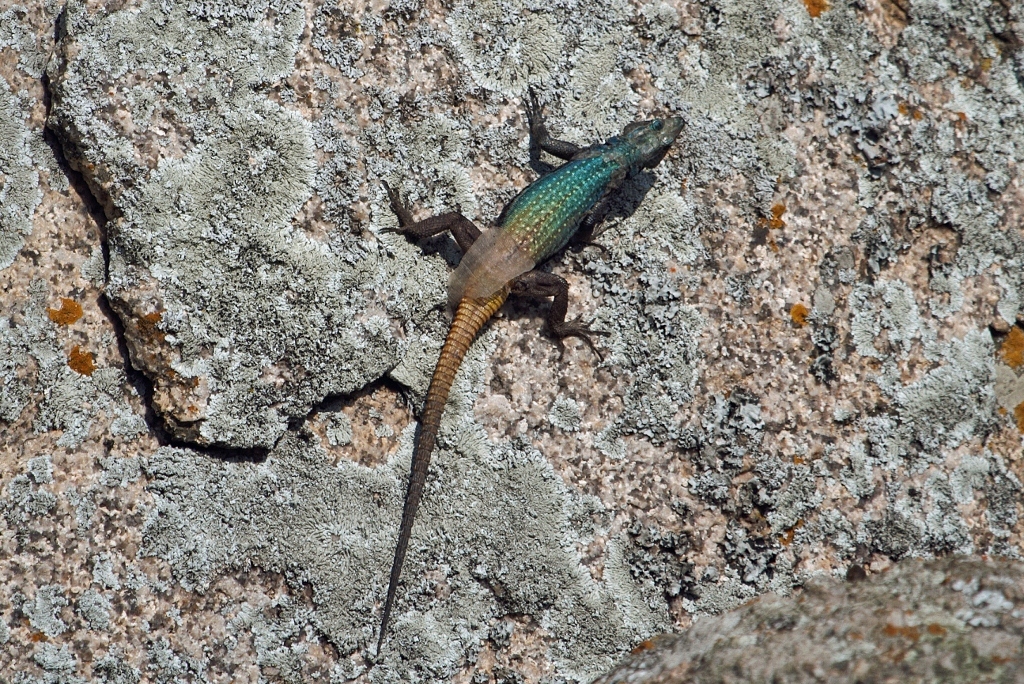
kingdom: Animalia
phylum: Chordata
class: Squamata
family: Cordylidae
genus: Platysaurus
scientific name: Platysaurus intermedius
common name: Common flat lizard
